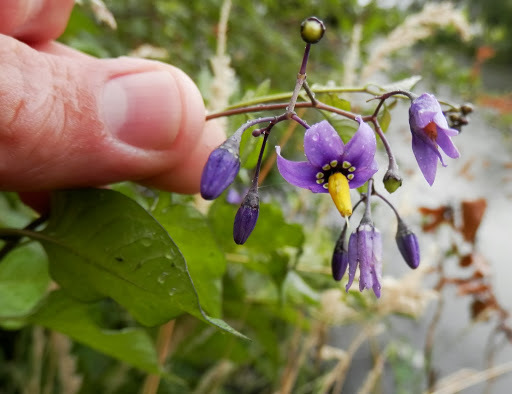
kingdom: Plantae
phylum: Tracheophyta
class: Magnoliopsida
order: Solanales
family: Solanaceae
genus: Solanum
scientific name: Solanum dulcamara
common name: Climbing nightshade
